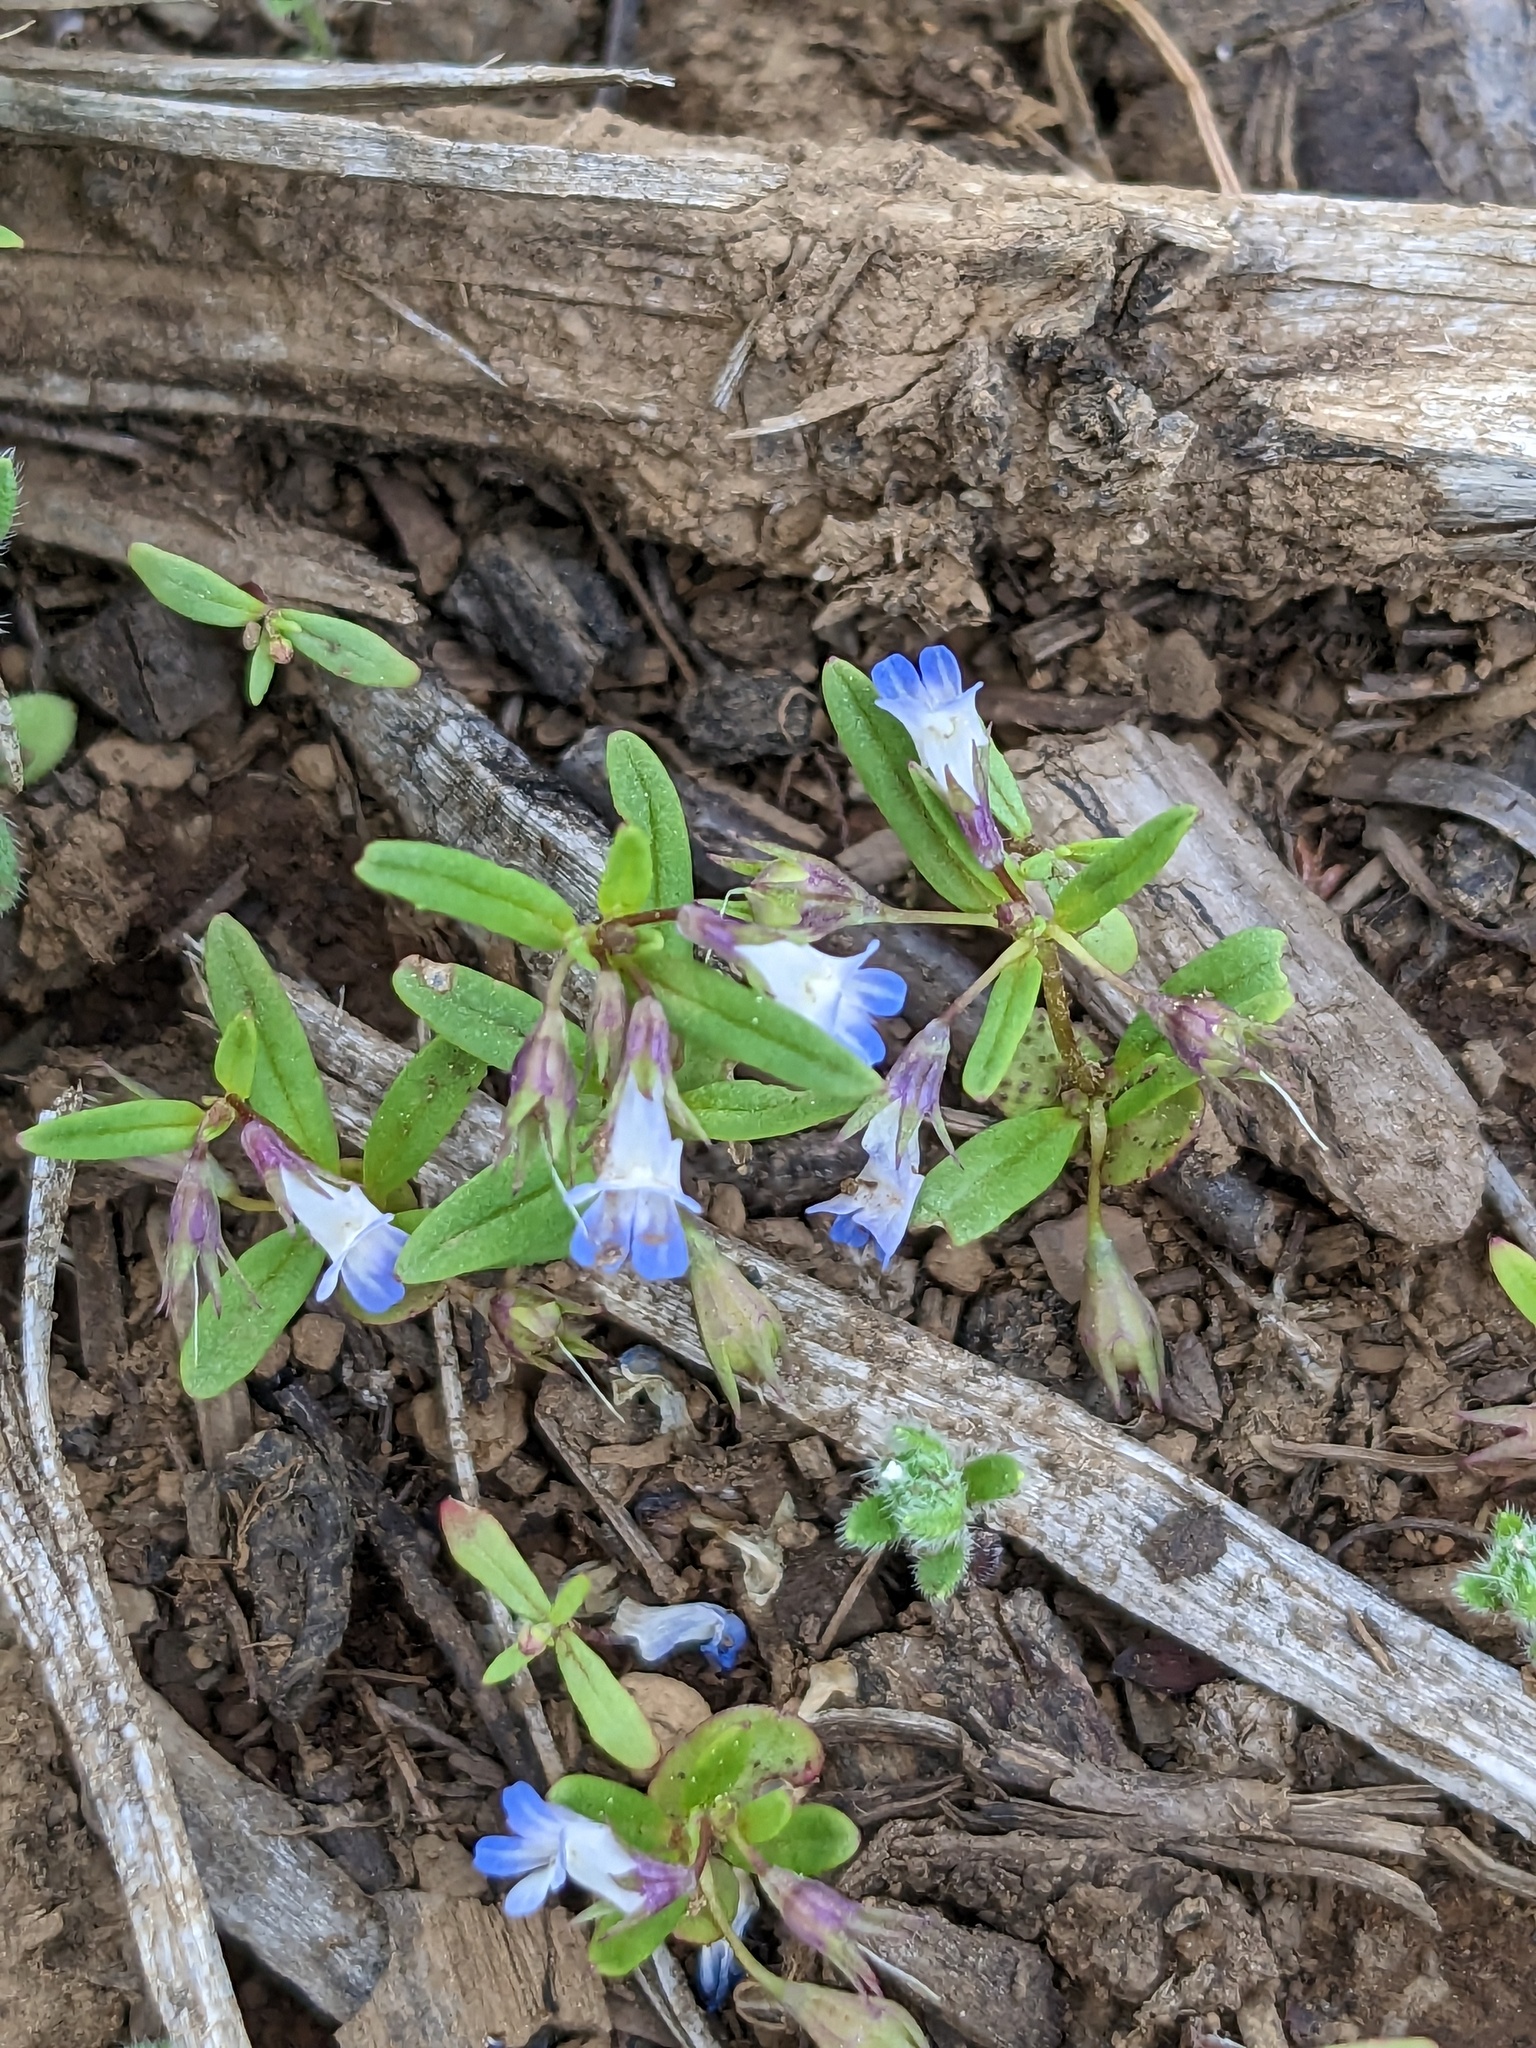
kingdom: Plantae
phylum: Tracheophyta
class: Magnoliopsida
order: Lamiales
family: Plantaginaceae
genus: Collinsia
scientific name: Collinsia parviflora
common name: Blue-lips
